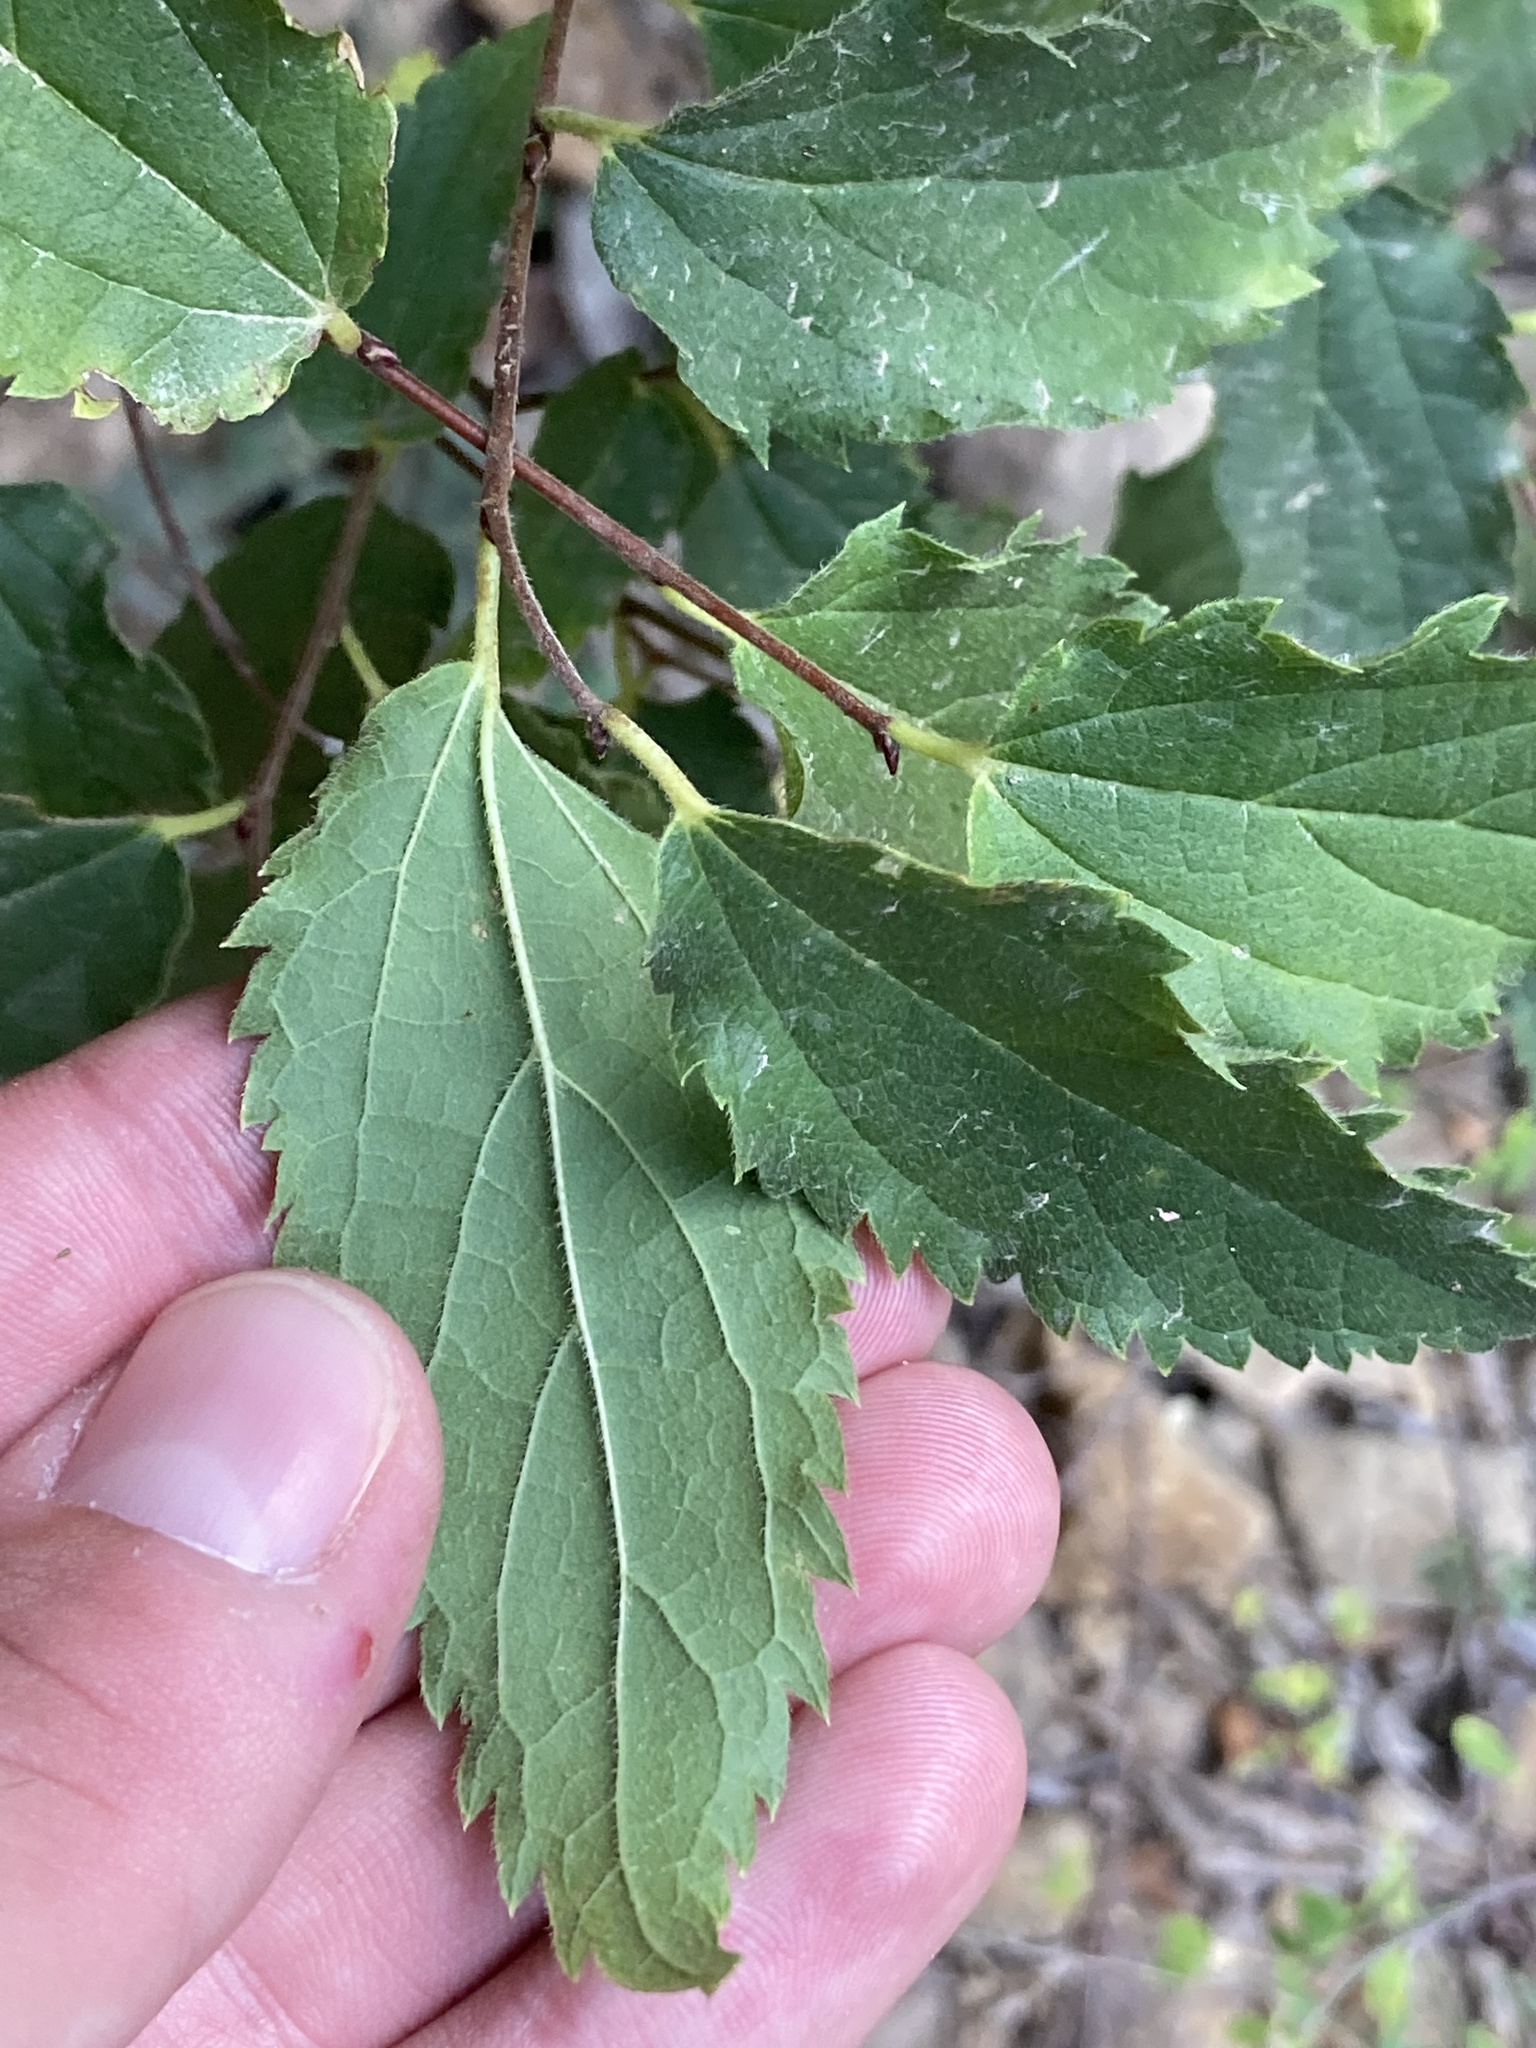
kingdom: Plantae
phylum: Tracheophyta
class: Magnoliopsida
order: Rosales
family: Cannabaceae
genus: Celtis
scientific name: Celtis australis
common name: European hackberry
